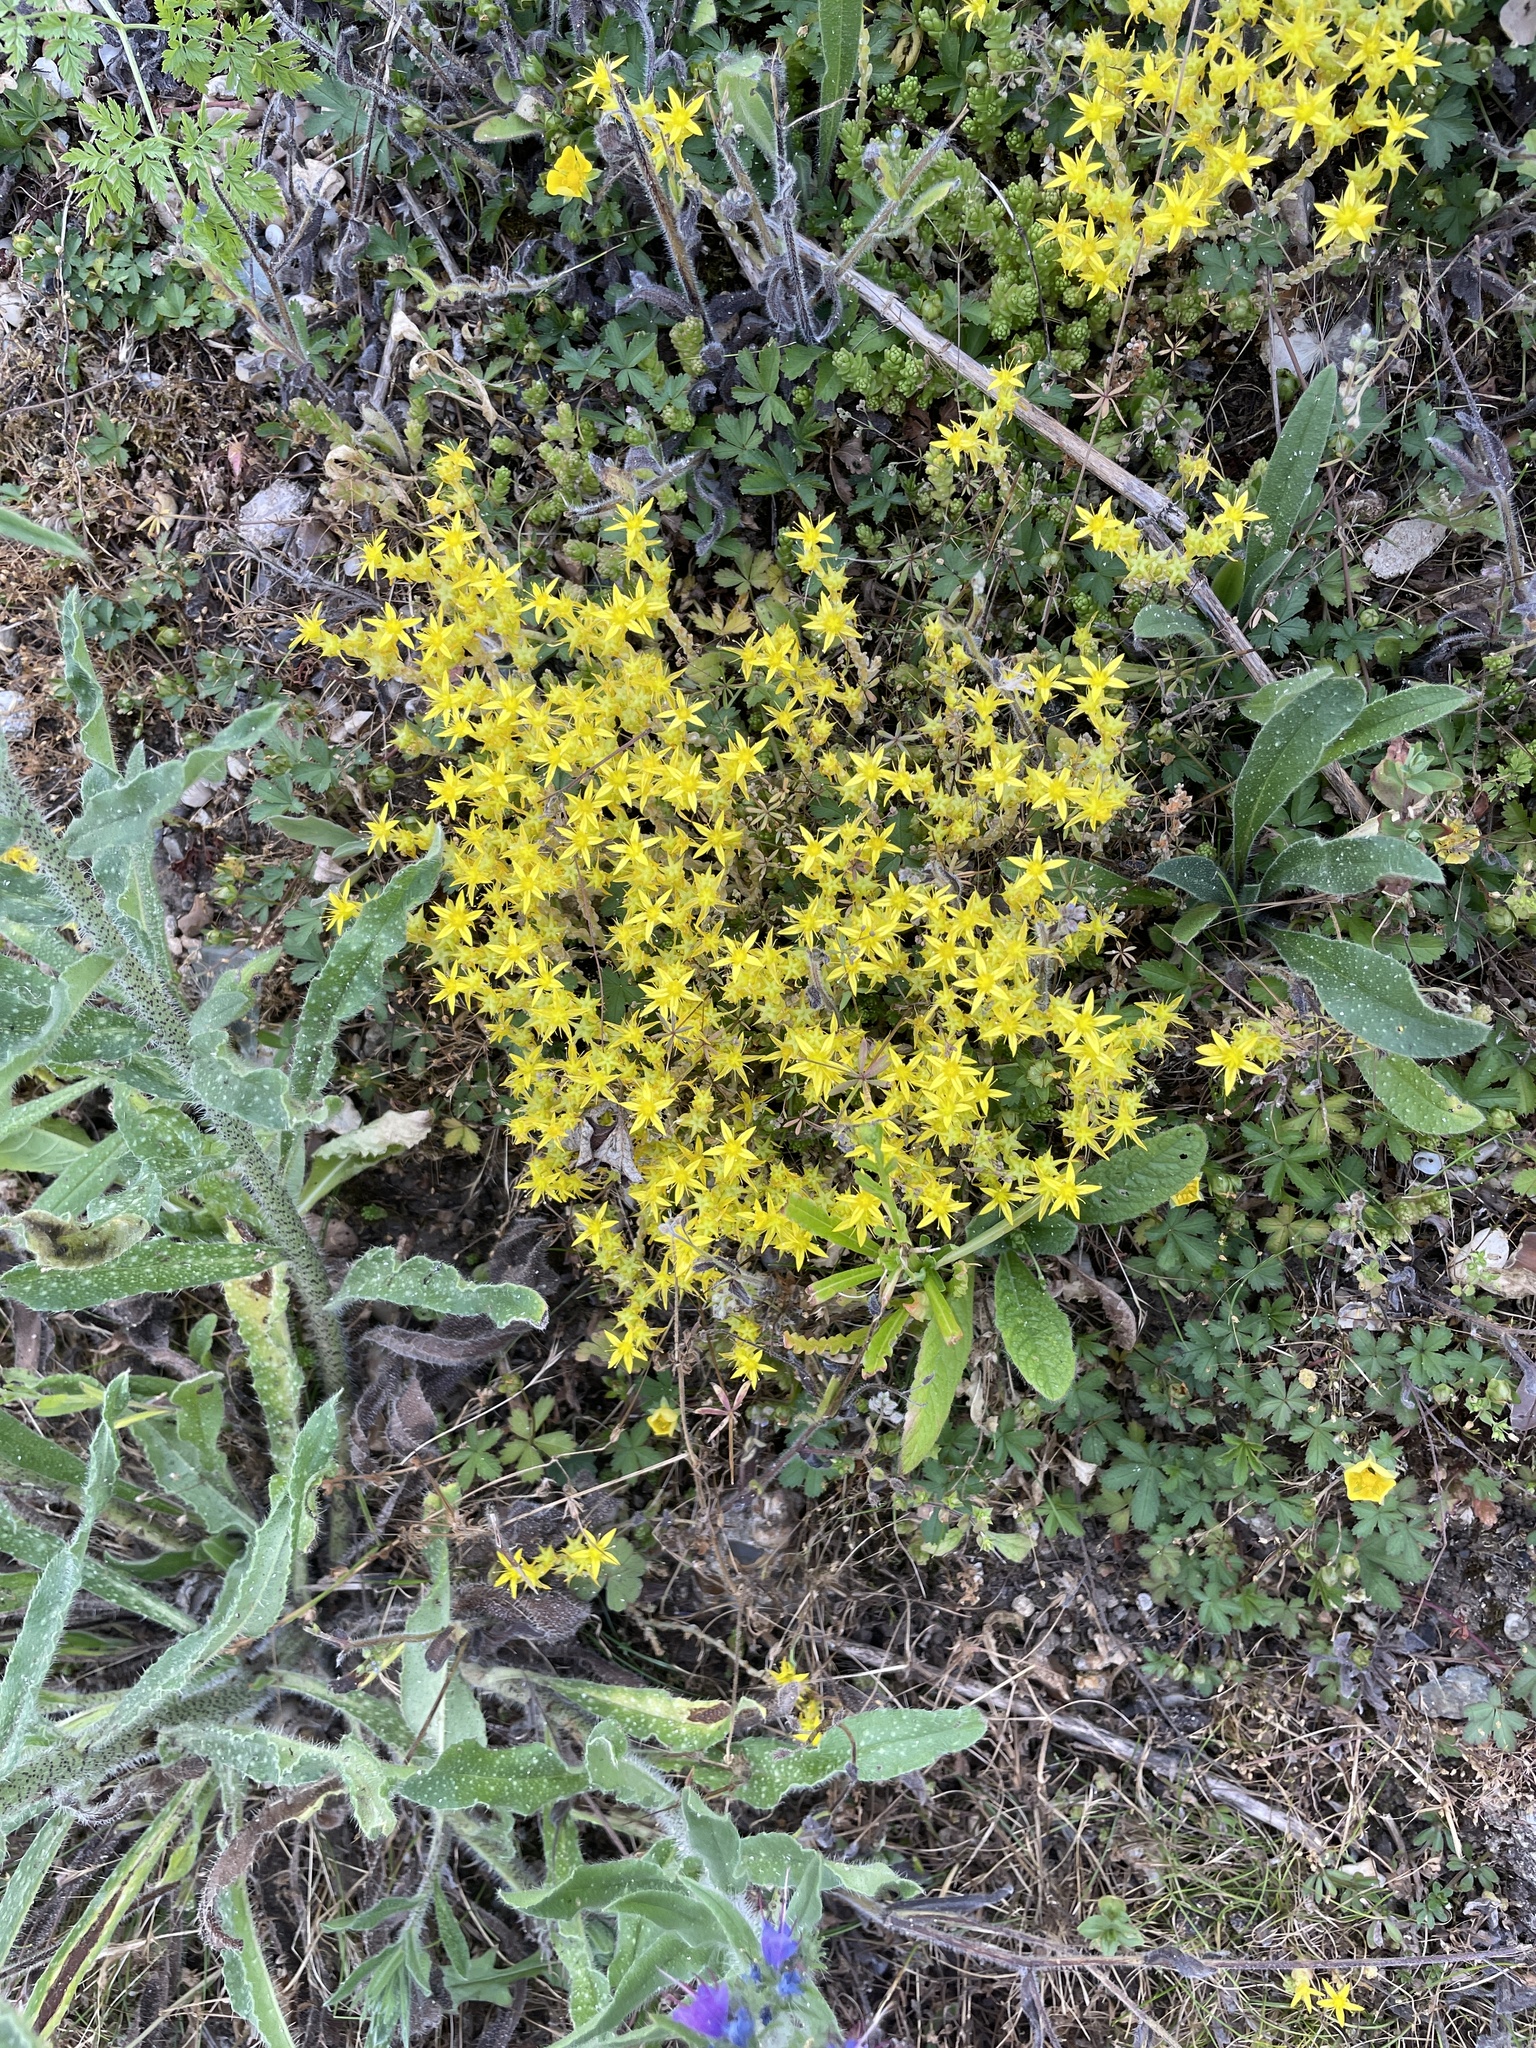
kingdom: Plantae
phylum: Tracheophyta
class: Magnoliopsida
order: Saxifragales
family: Crassulaceae
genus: Sedum
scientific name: Sedum acre
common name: Biting stonecrop
